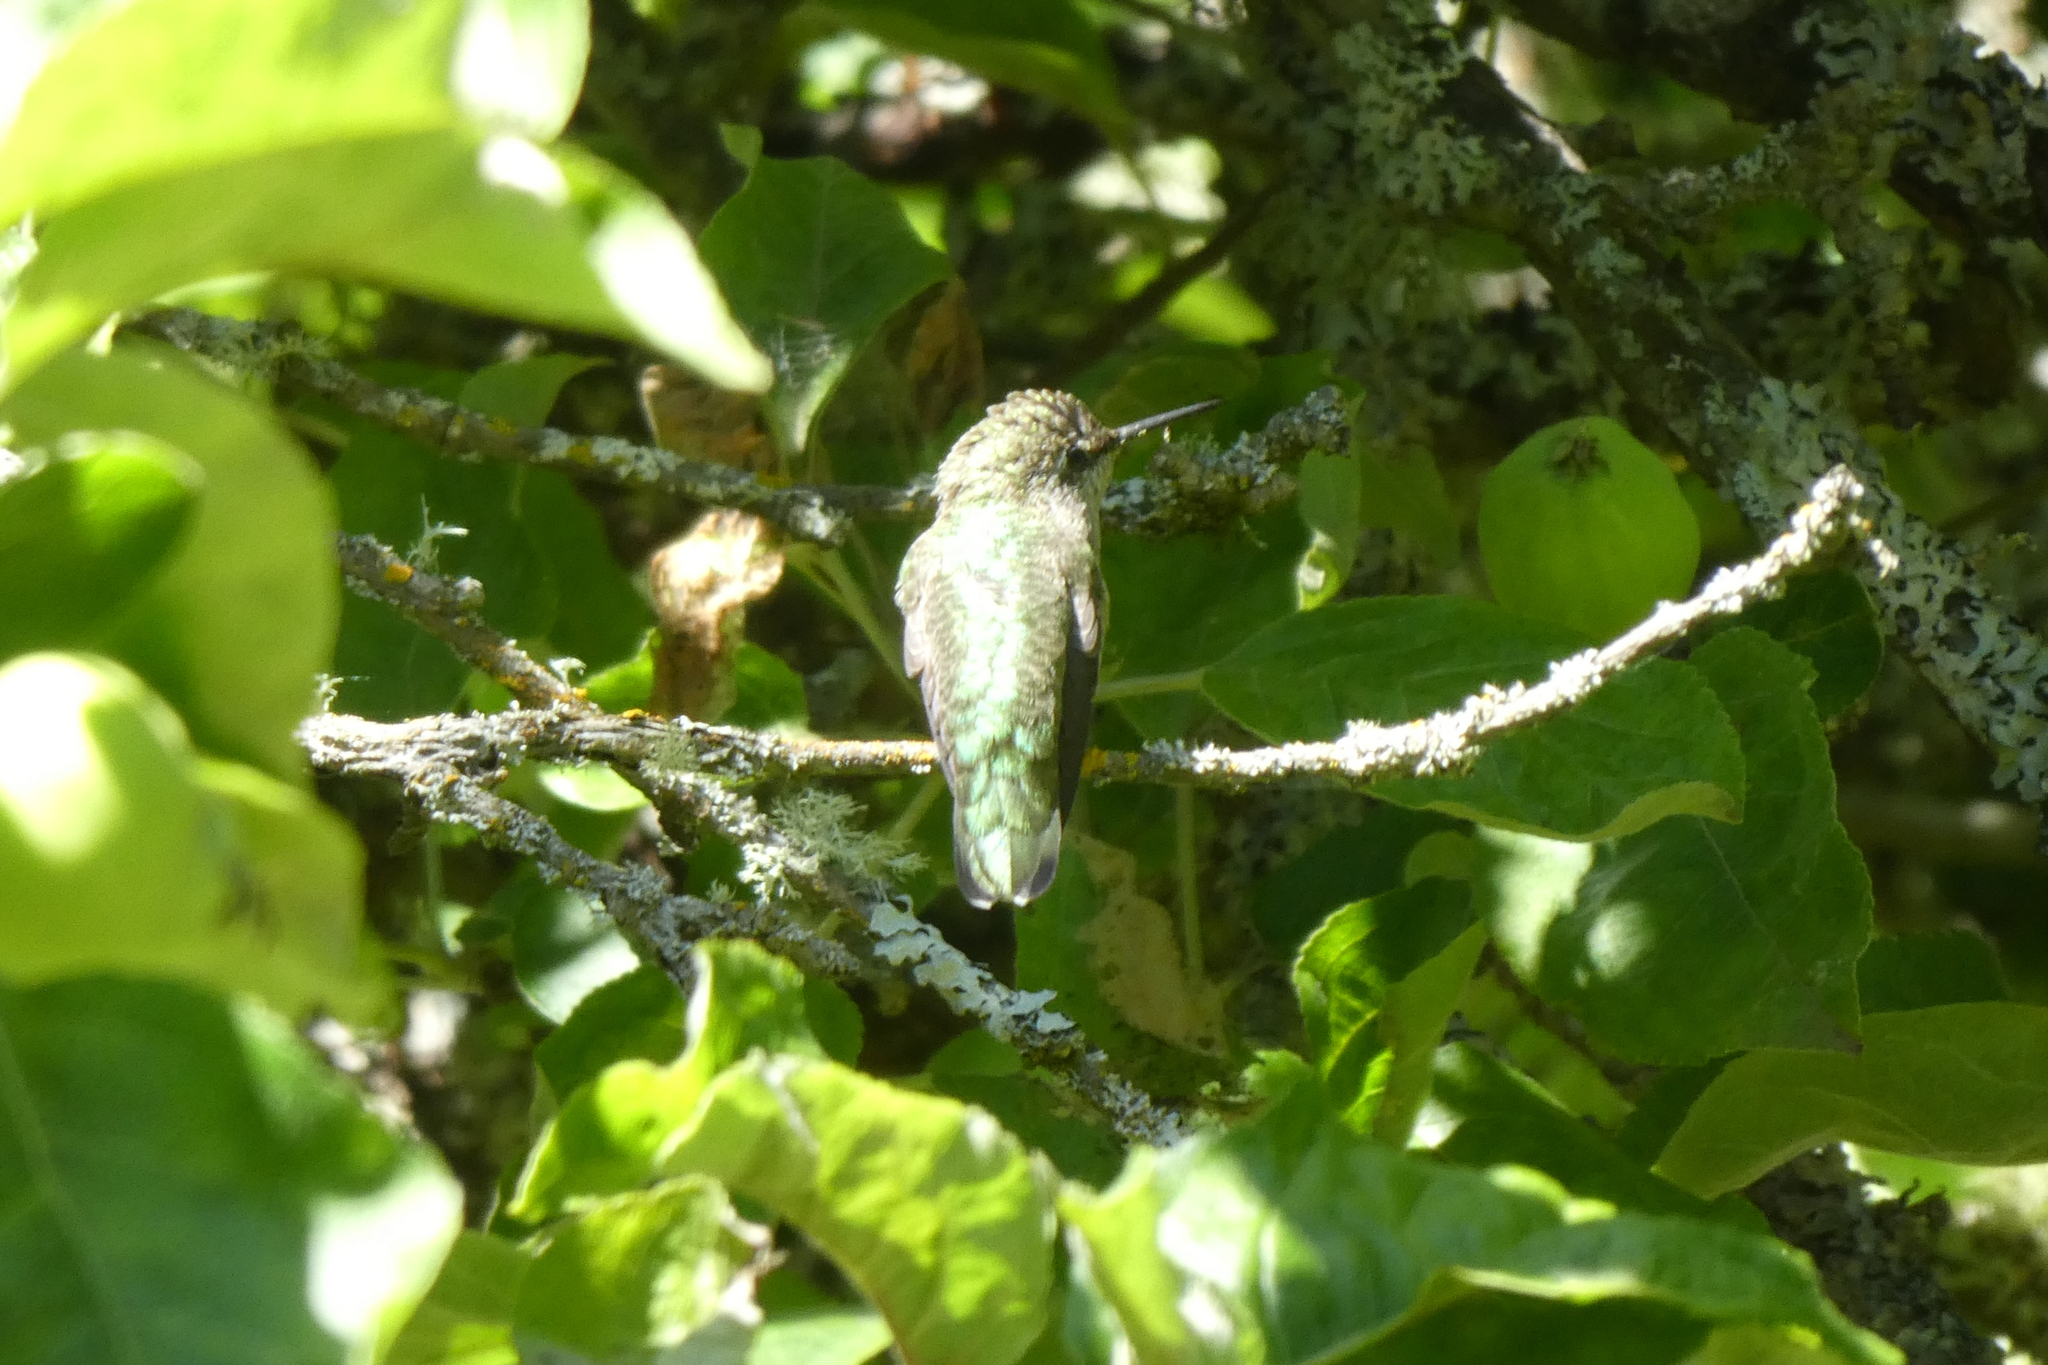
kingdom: Animalia
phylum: Chordata
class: Aves
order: Apodiformes
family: Trochilidae
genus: Calypte
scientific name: Calypte anna
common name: Anna's hummingbird
